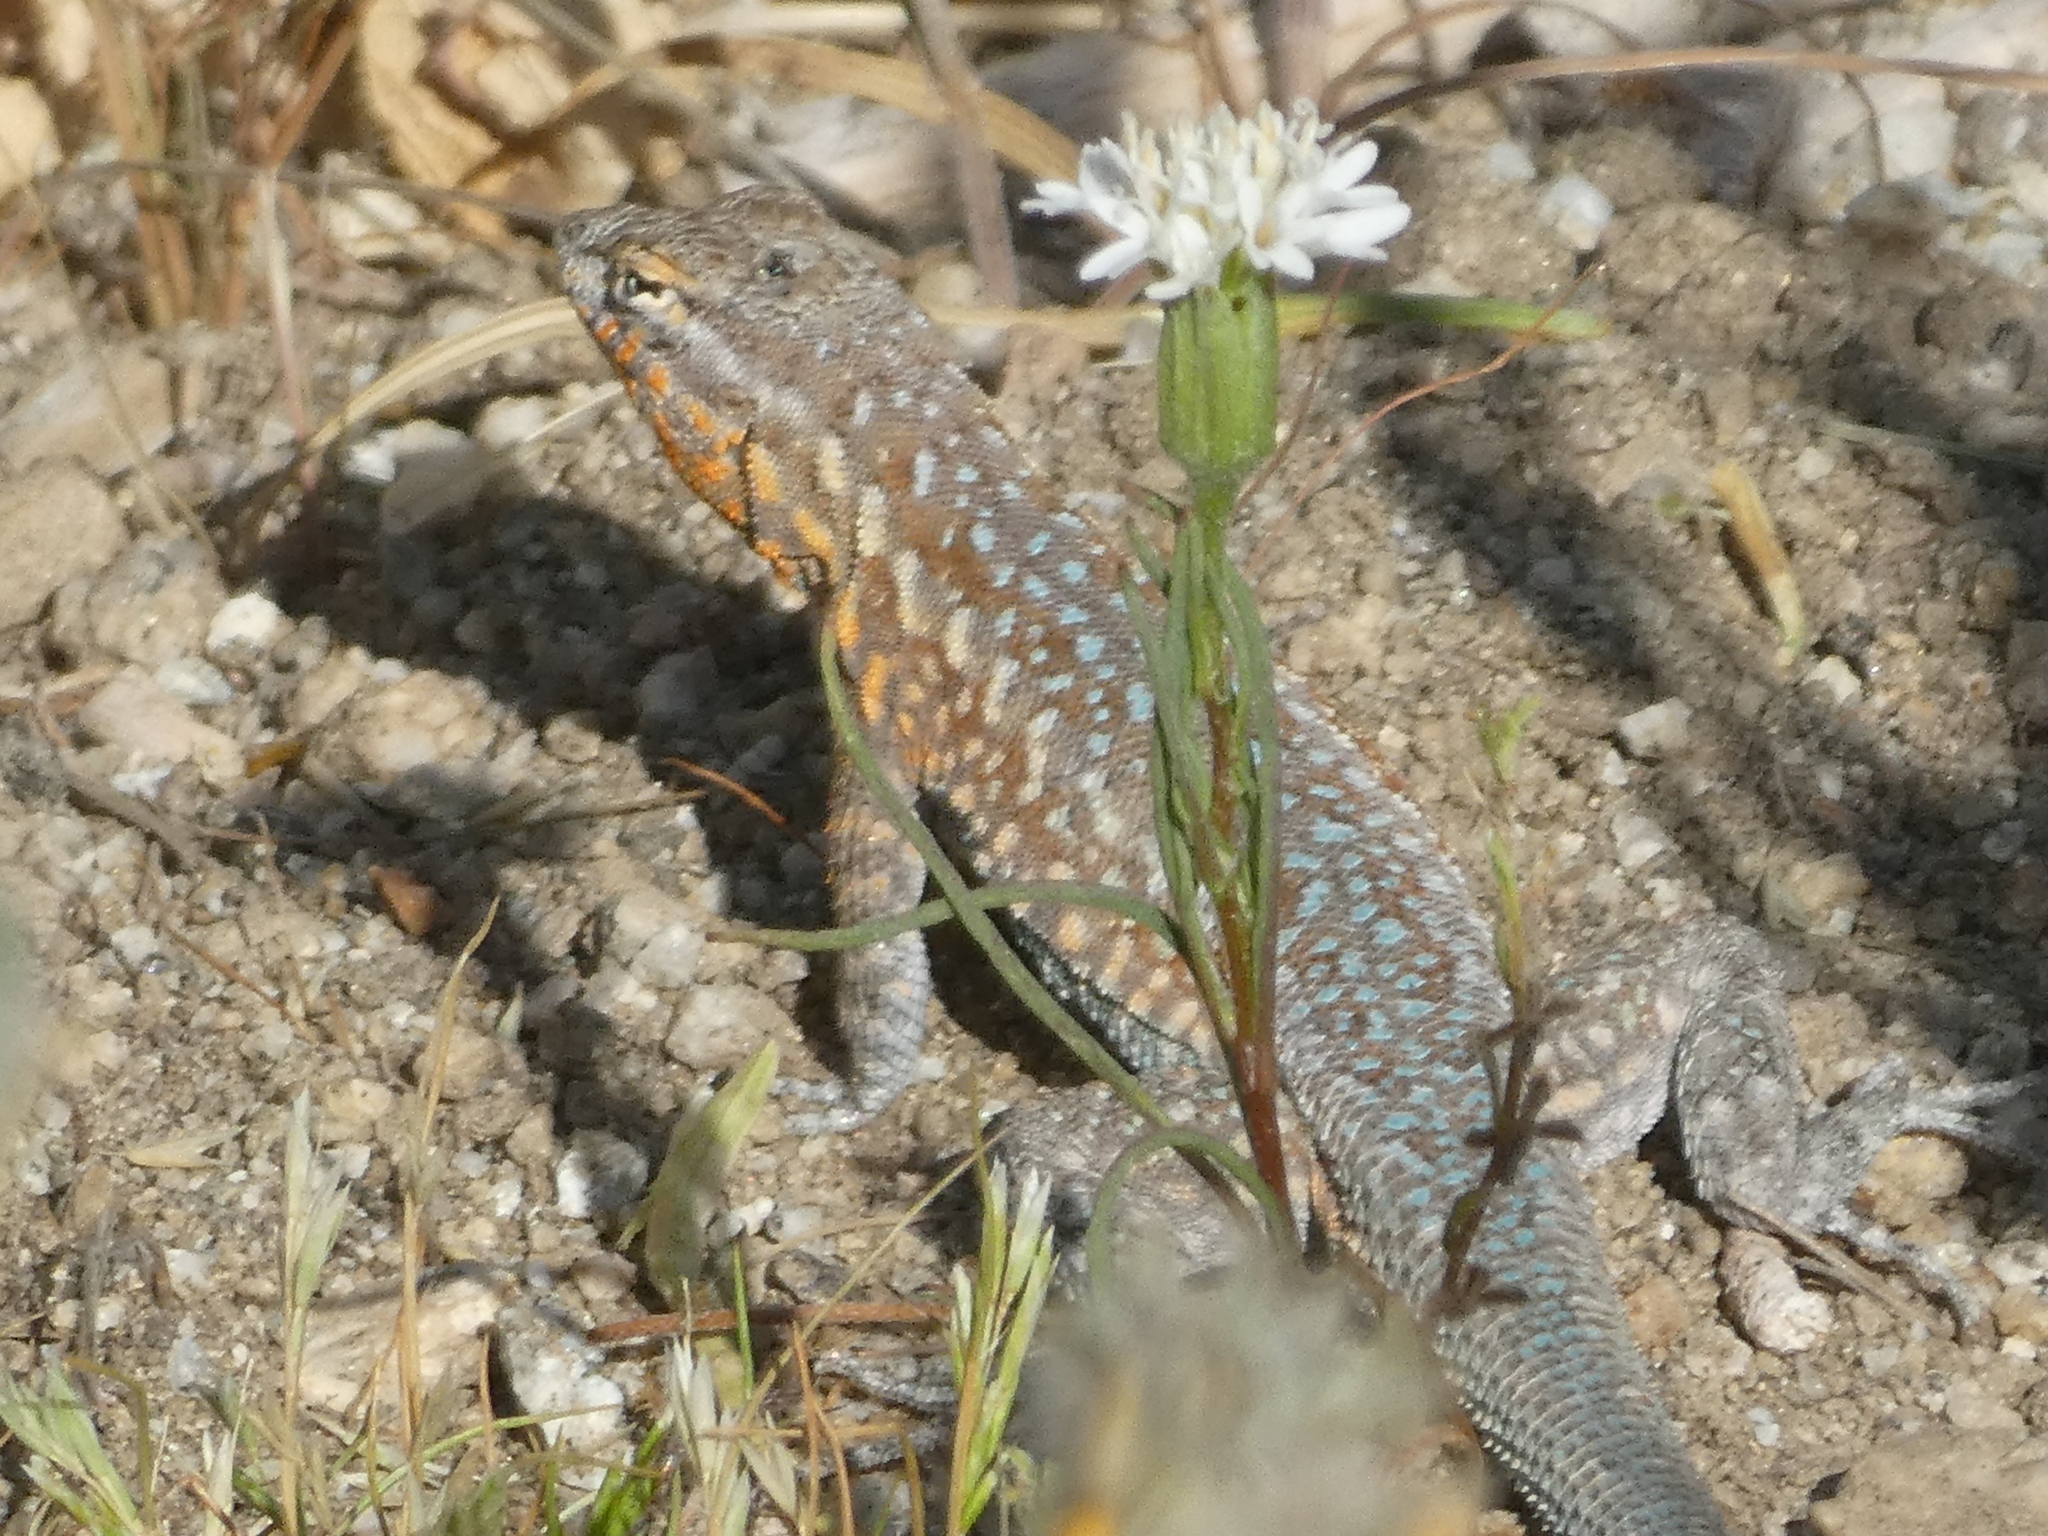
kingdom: Animalia
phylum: Chordata
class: Squamata
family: Phrynosomatidae
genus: Uta
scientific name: Uta stansburiana
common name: Side-blotched lizard
